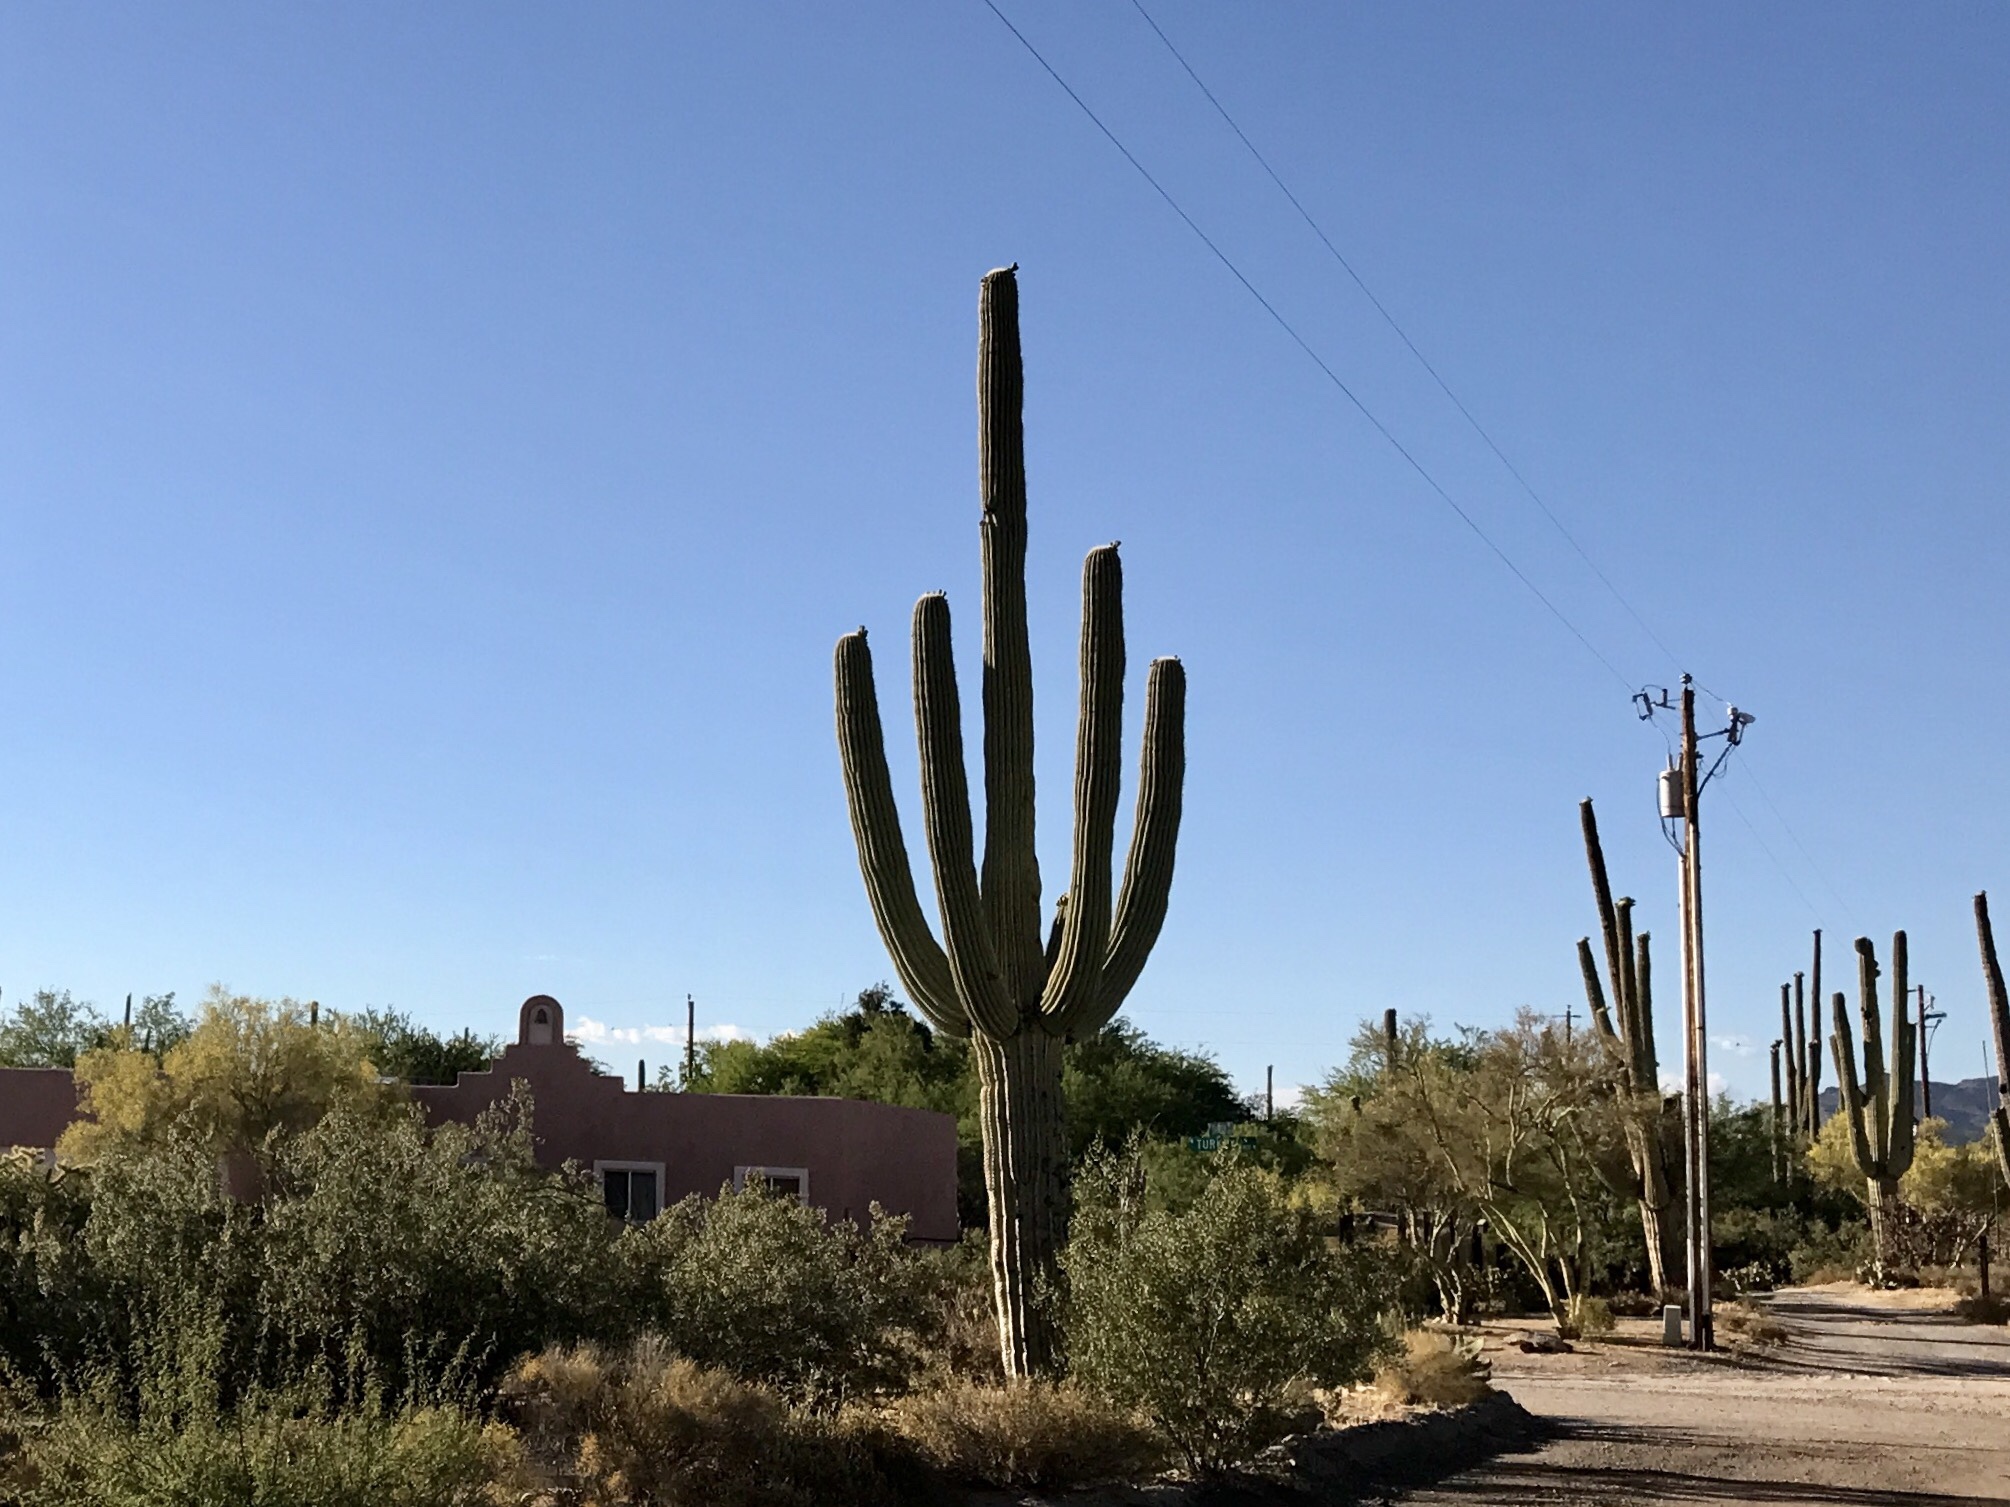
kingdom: Plantae
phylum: Tracheophyta
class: Magnoliopsida
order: Caryophyllales
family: Cactaceae
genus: Carnegiea
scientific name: Carnegiea gigantea
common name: Saguaro
